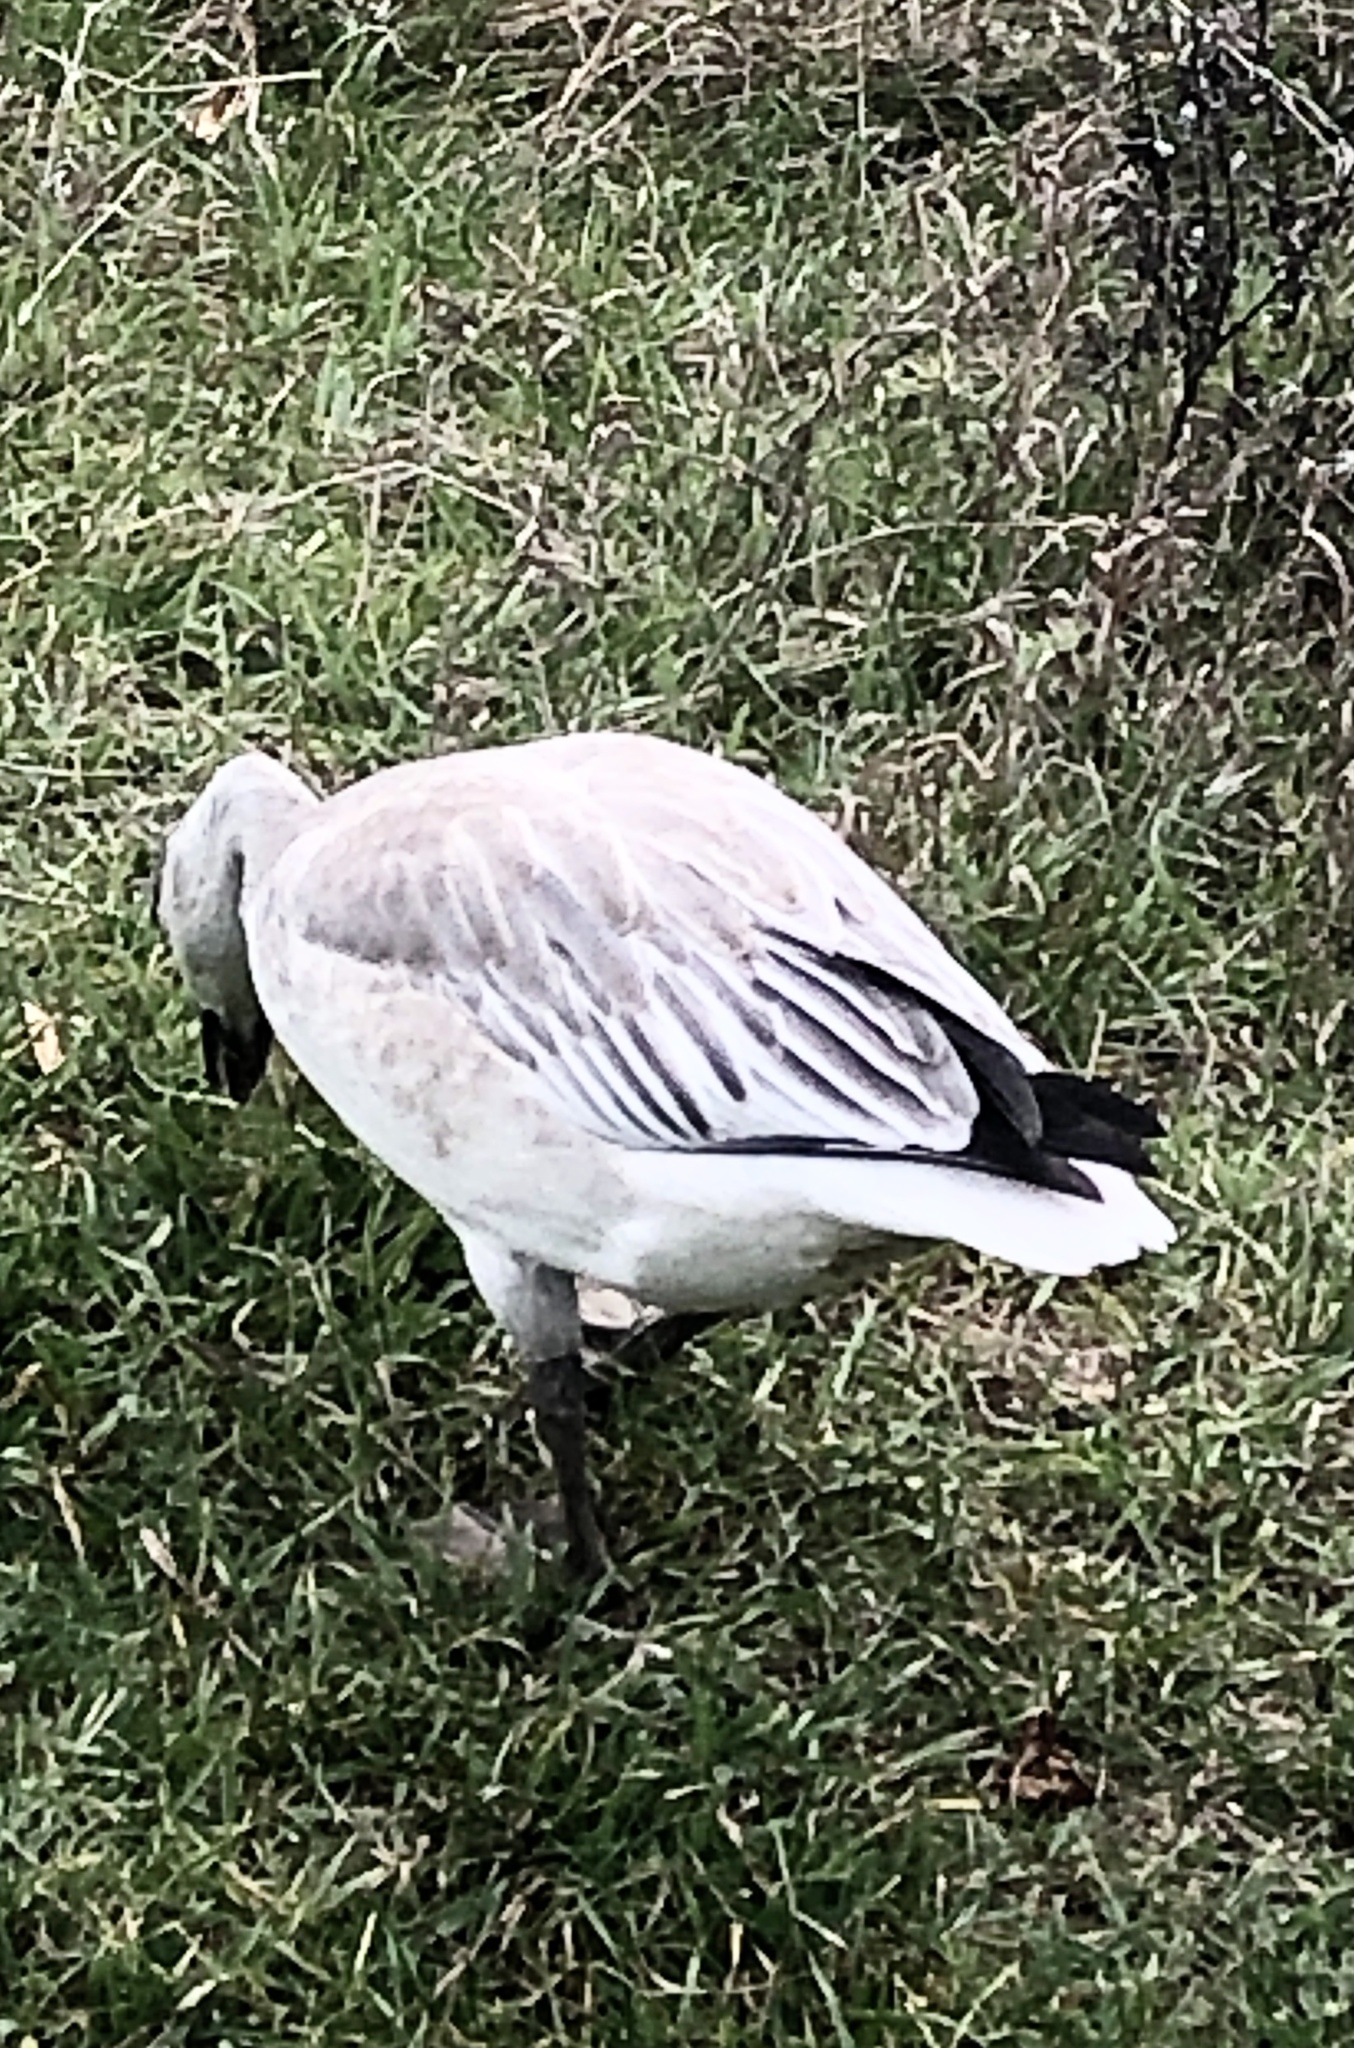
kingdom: Animalia
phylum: Chordata
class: Aves
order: Anseriformes
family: Anatidae
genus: Anser
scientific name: Anser caerulescens
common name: Snow goose
